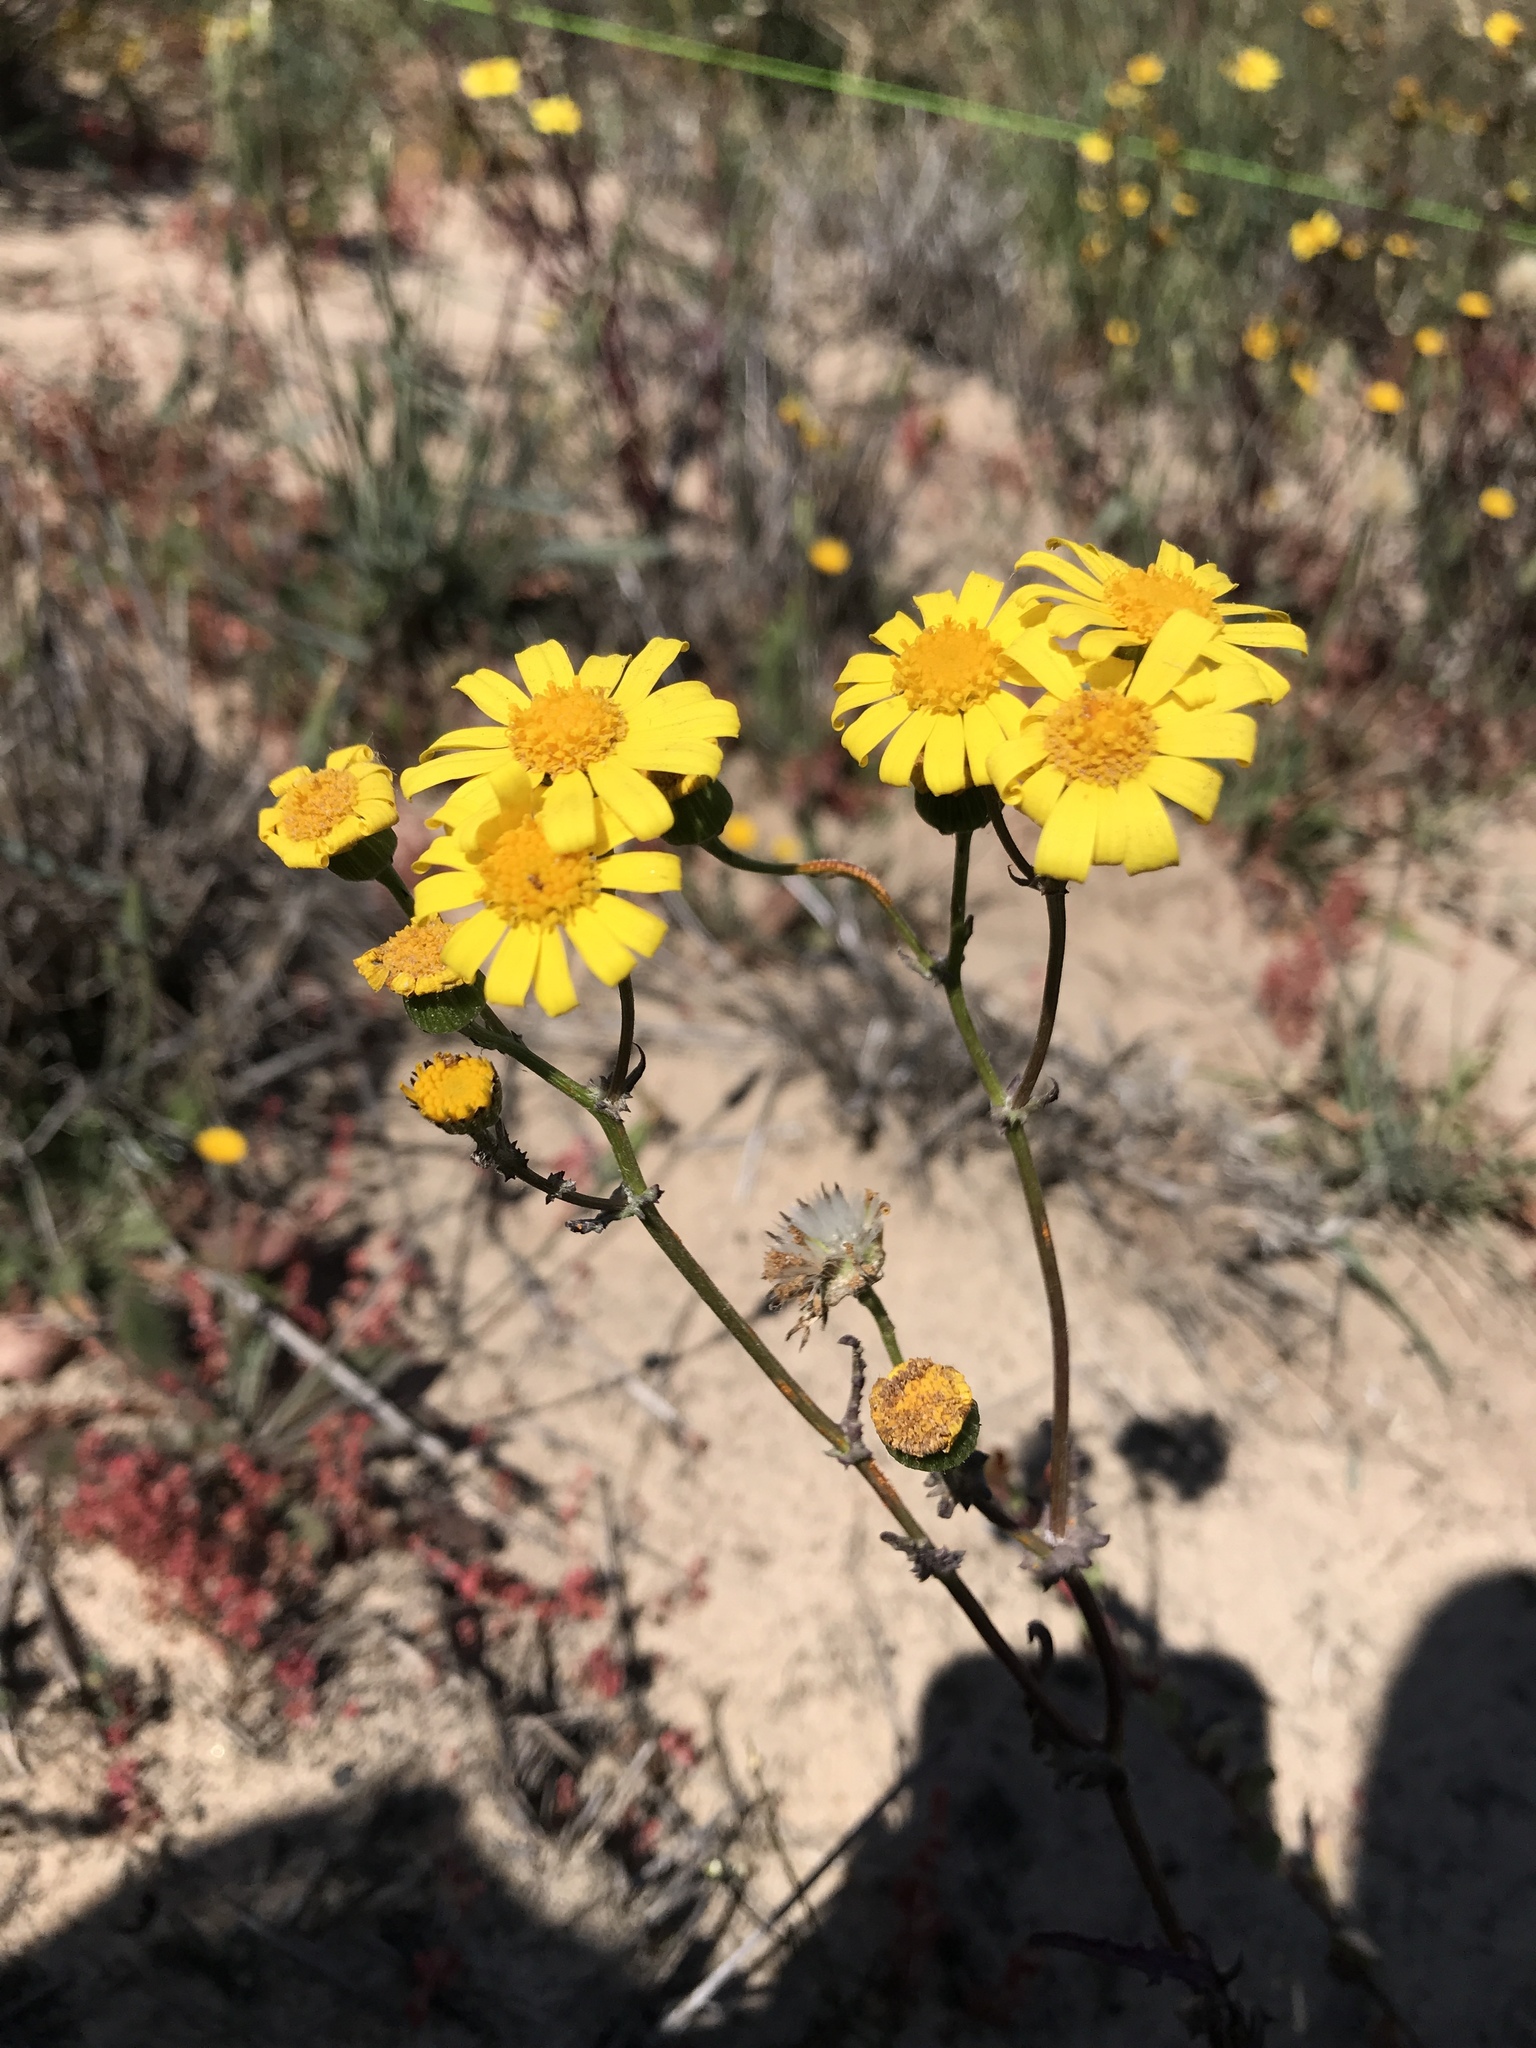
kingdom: Plantae
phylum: Tracheophyta
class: Magnoliopsida
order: Asterales
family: Asteraceae
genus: Senecio
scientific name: Senecio californicus
